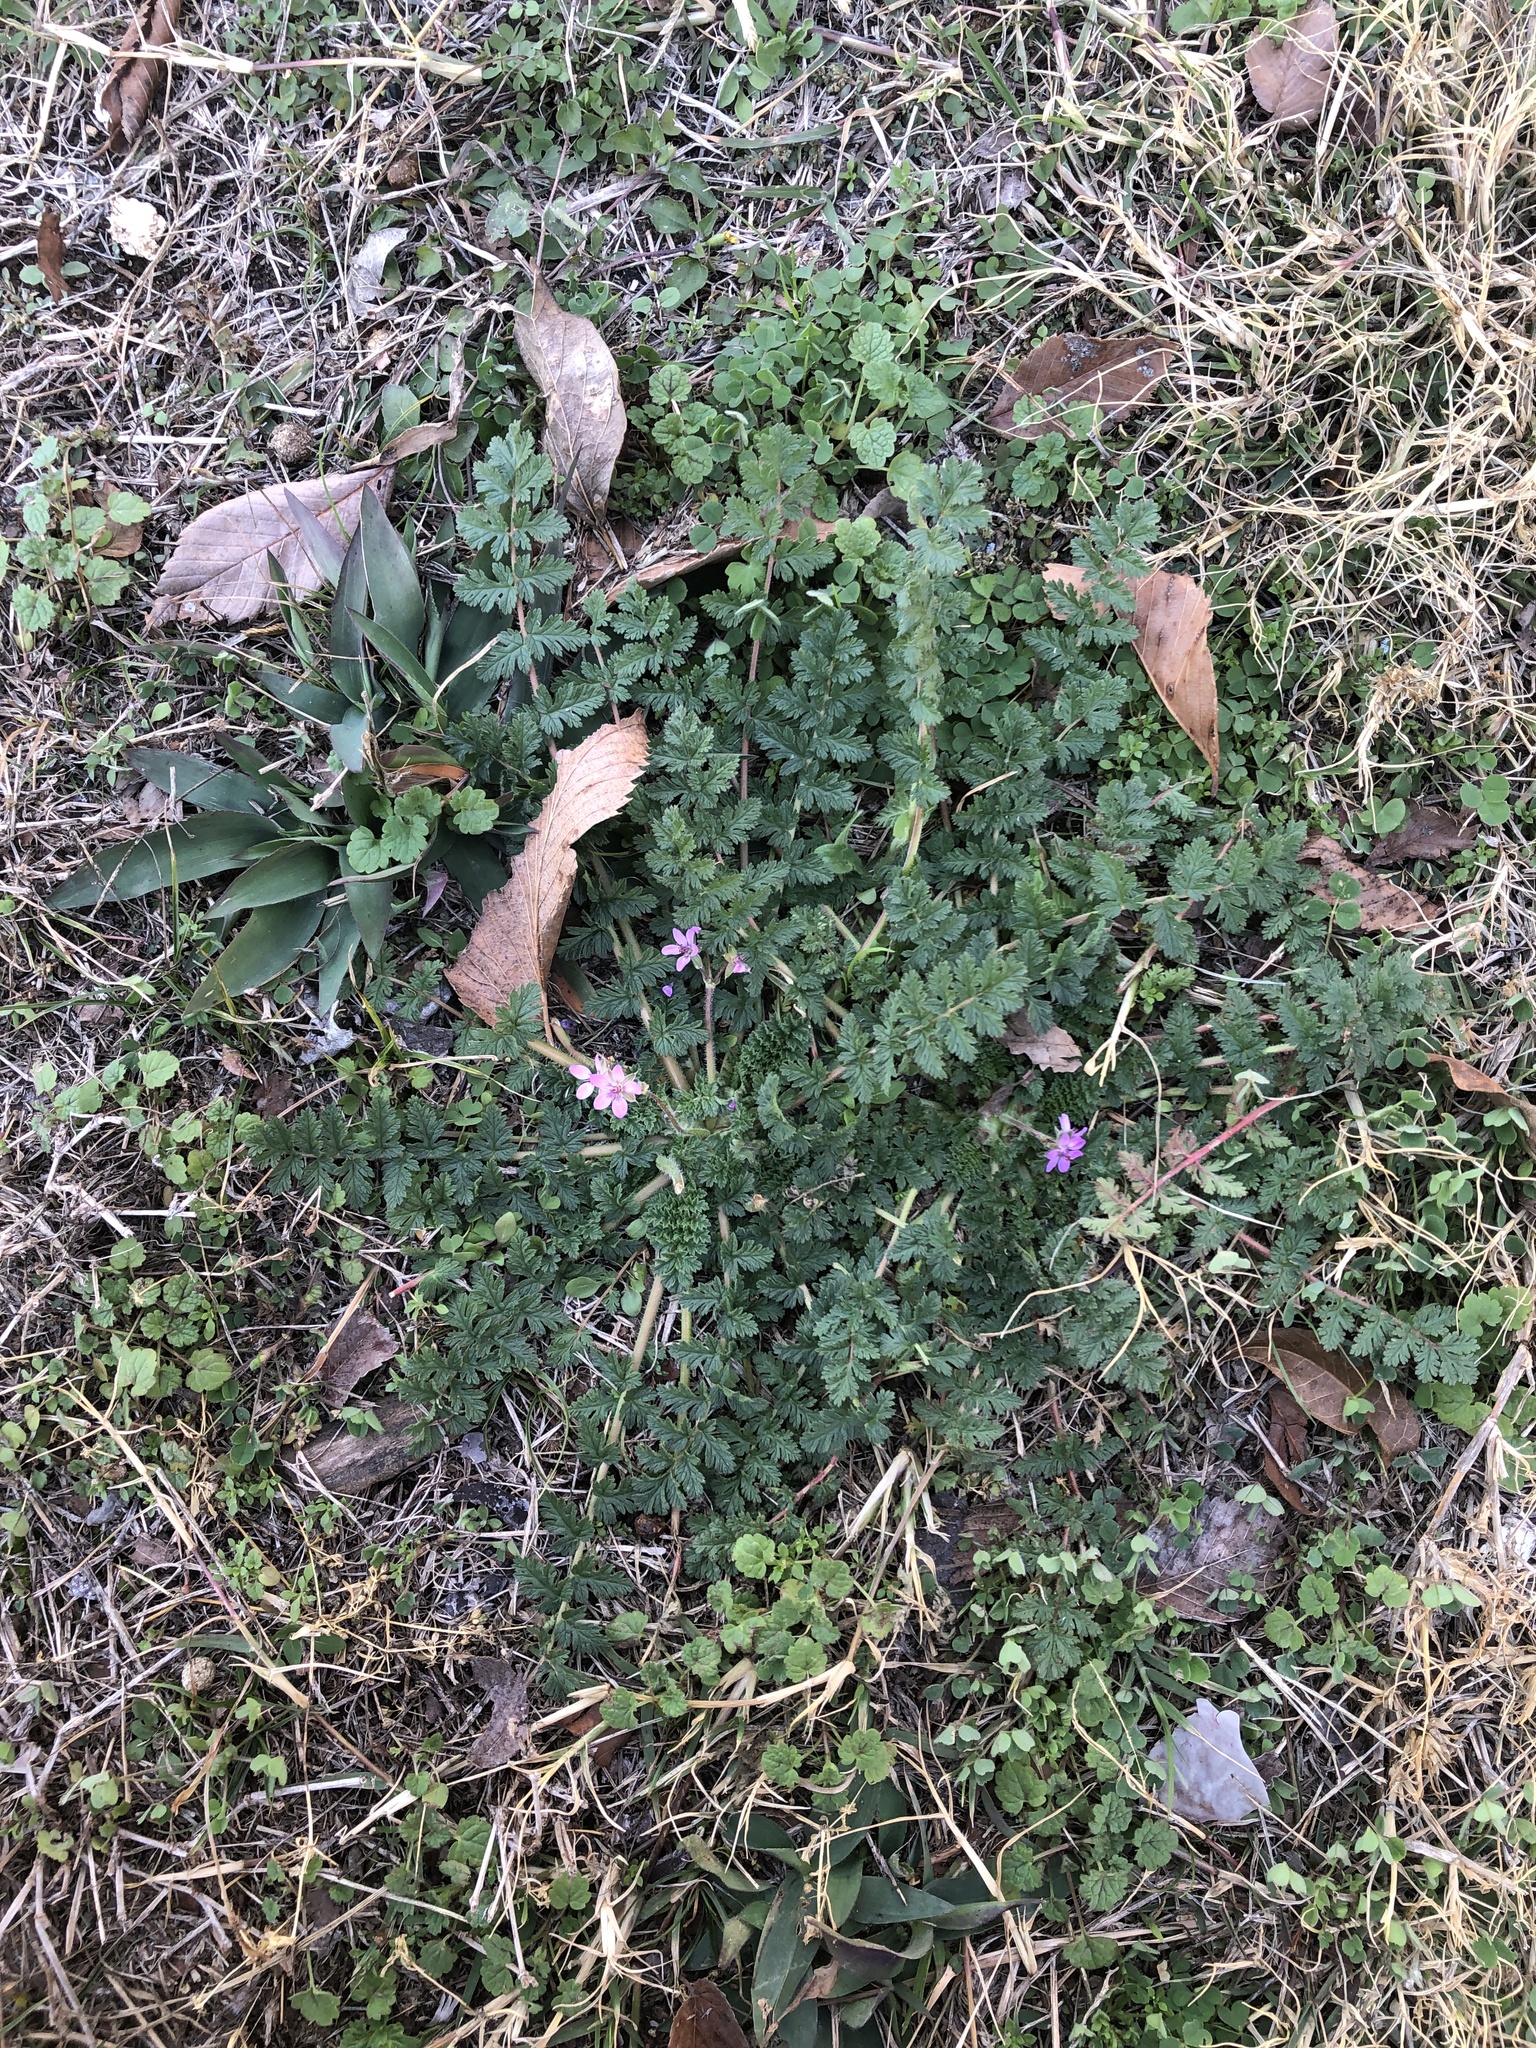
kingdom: Plantae
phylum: Tracheophyta
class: Magnoliopsida
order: Geraniales
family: Geraniaceae
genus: Erodium
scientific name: Erodium cicutarium
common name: Common stork's-bill
